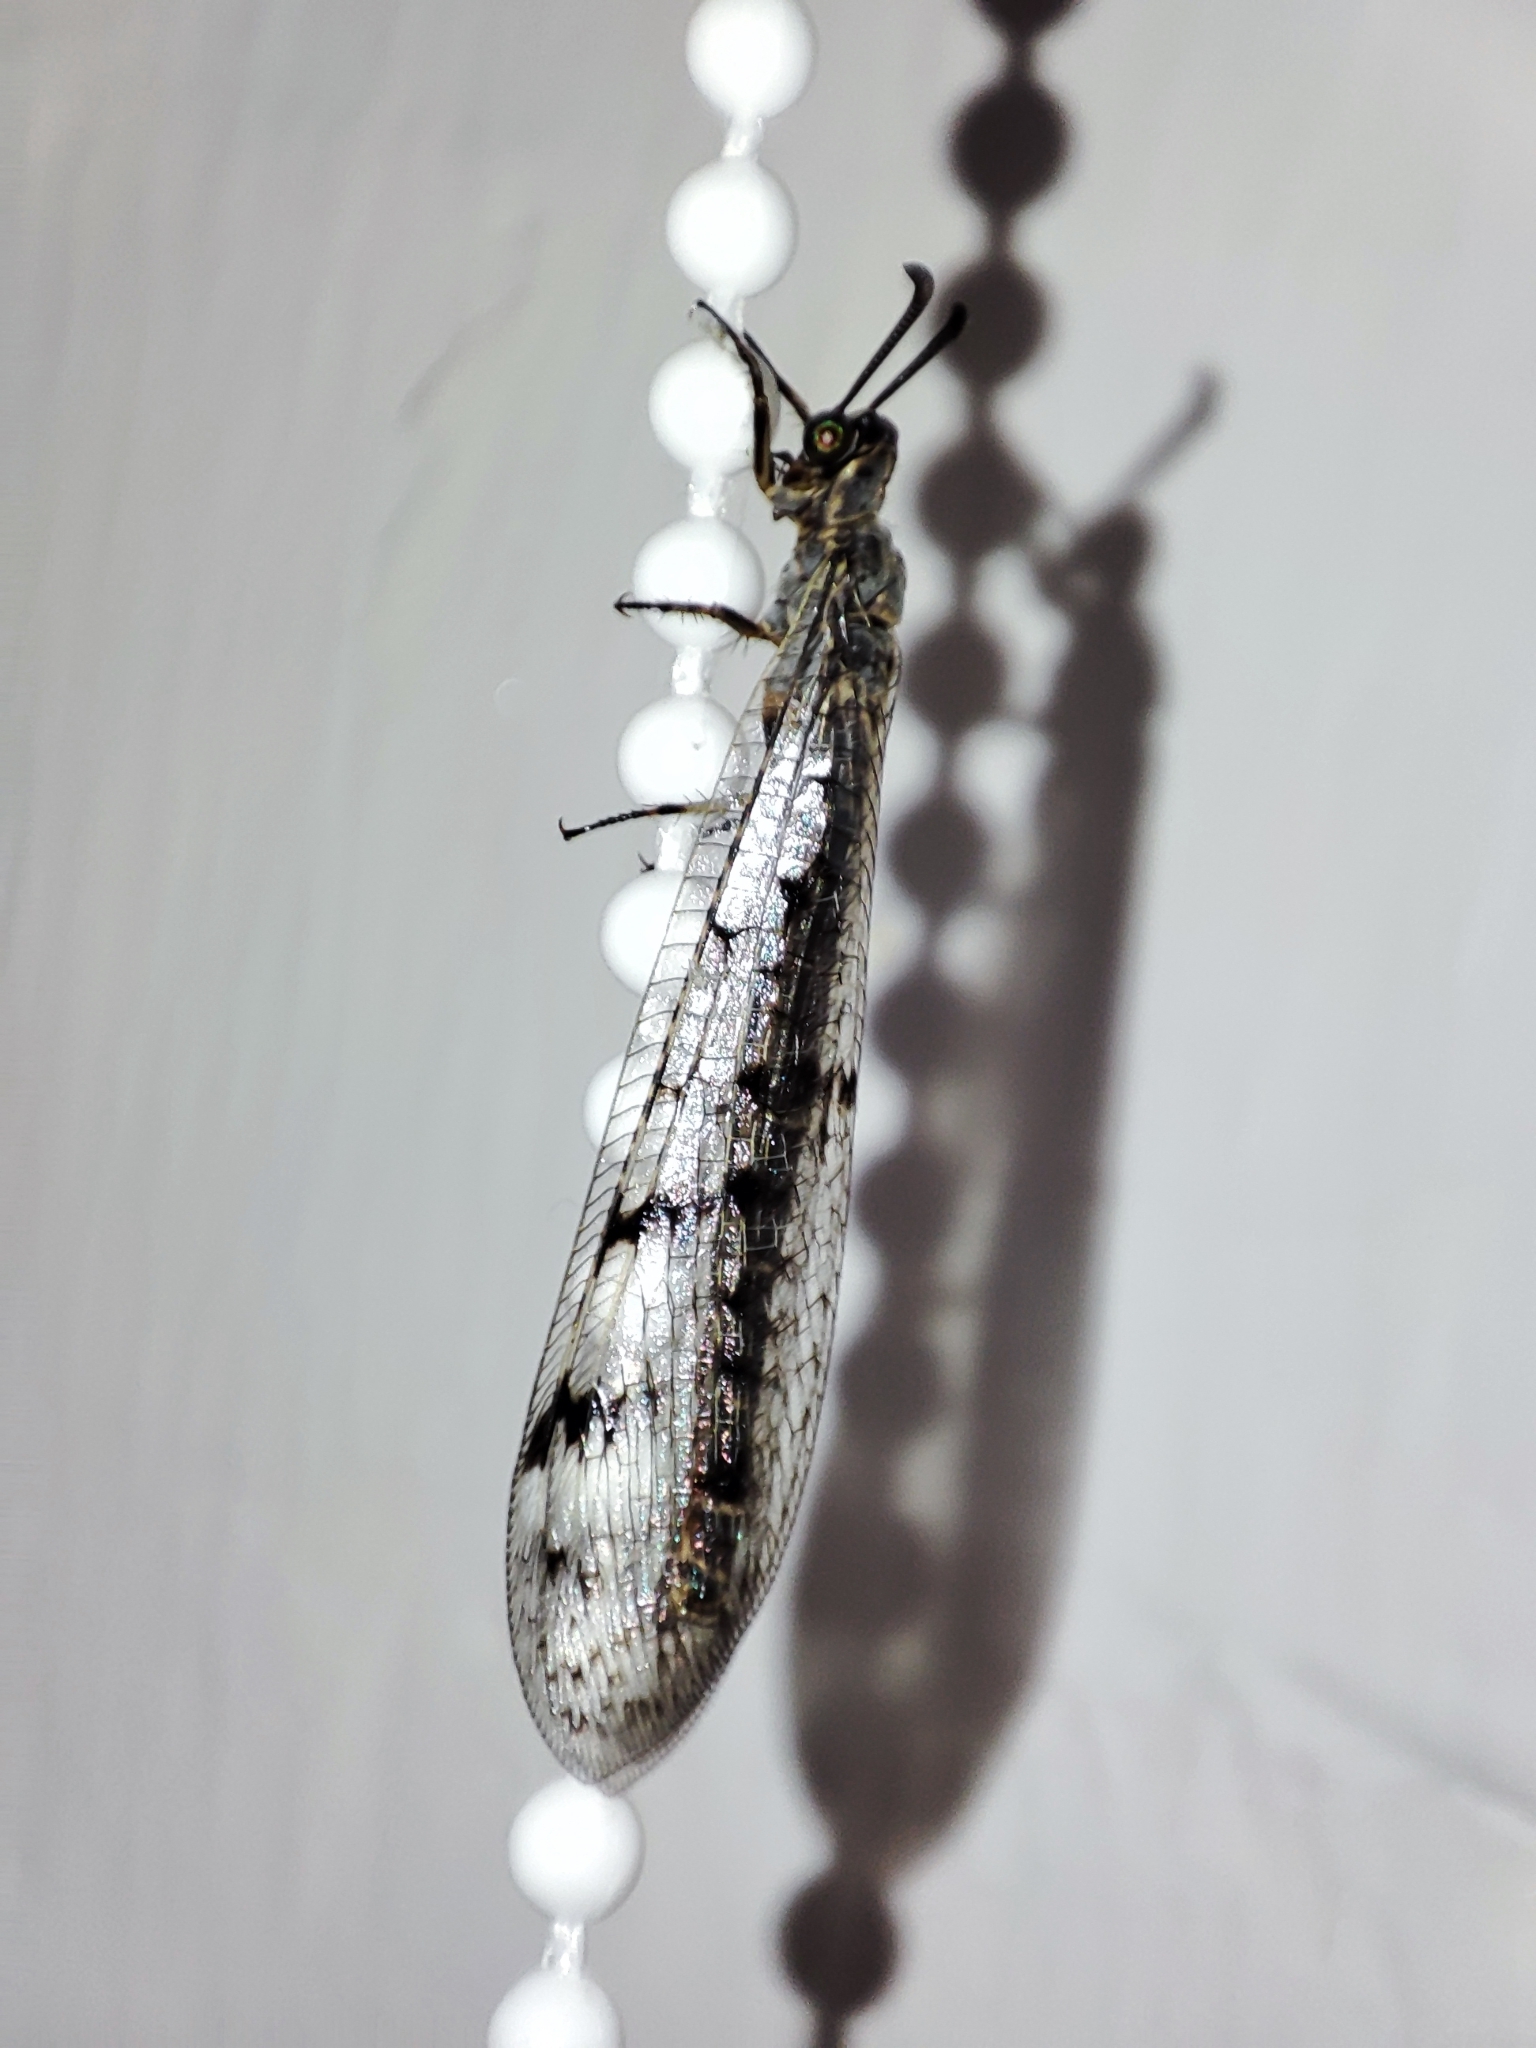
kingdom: Animalia
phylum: Arthropoda
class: Insecta
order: Neuroptera
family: Myrmeleontidae
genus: Euroleon
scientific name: Euroleon nostras
